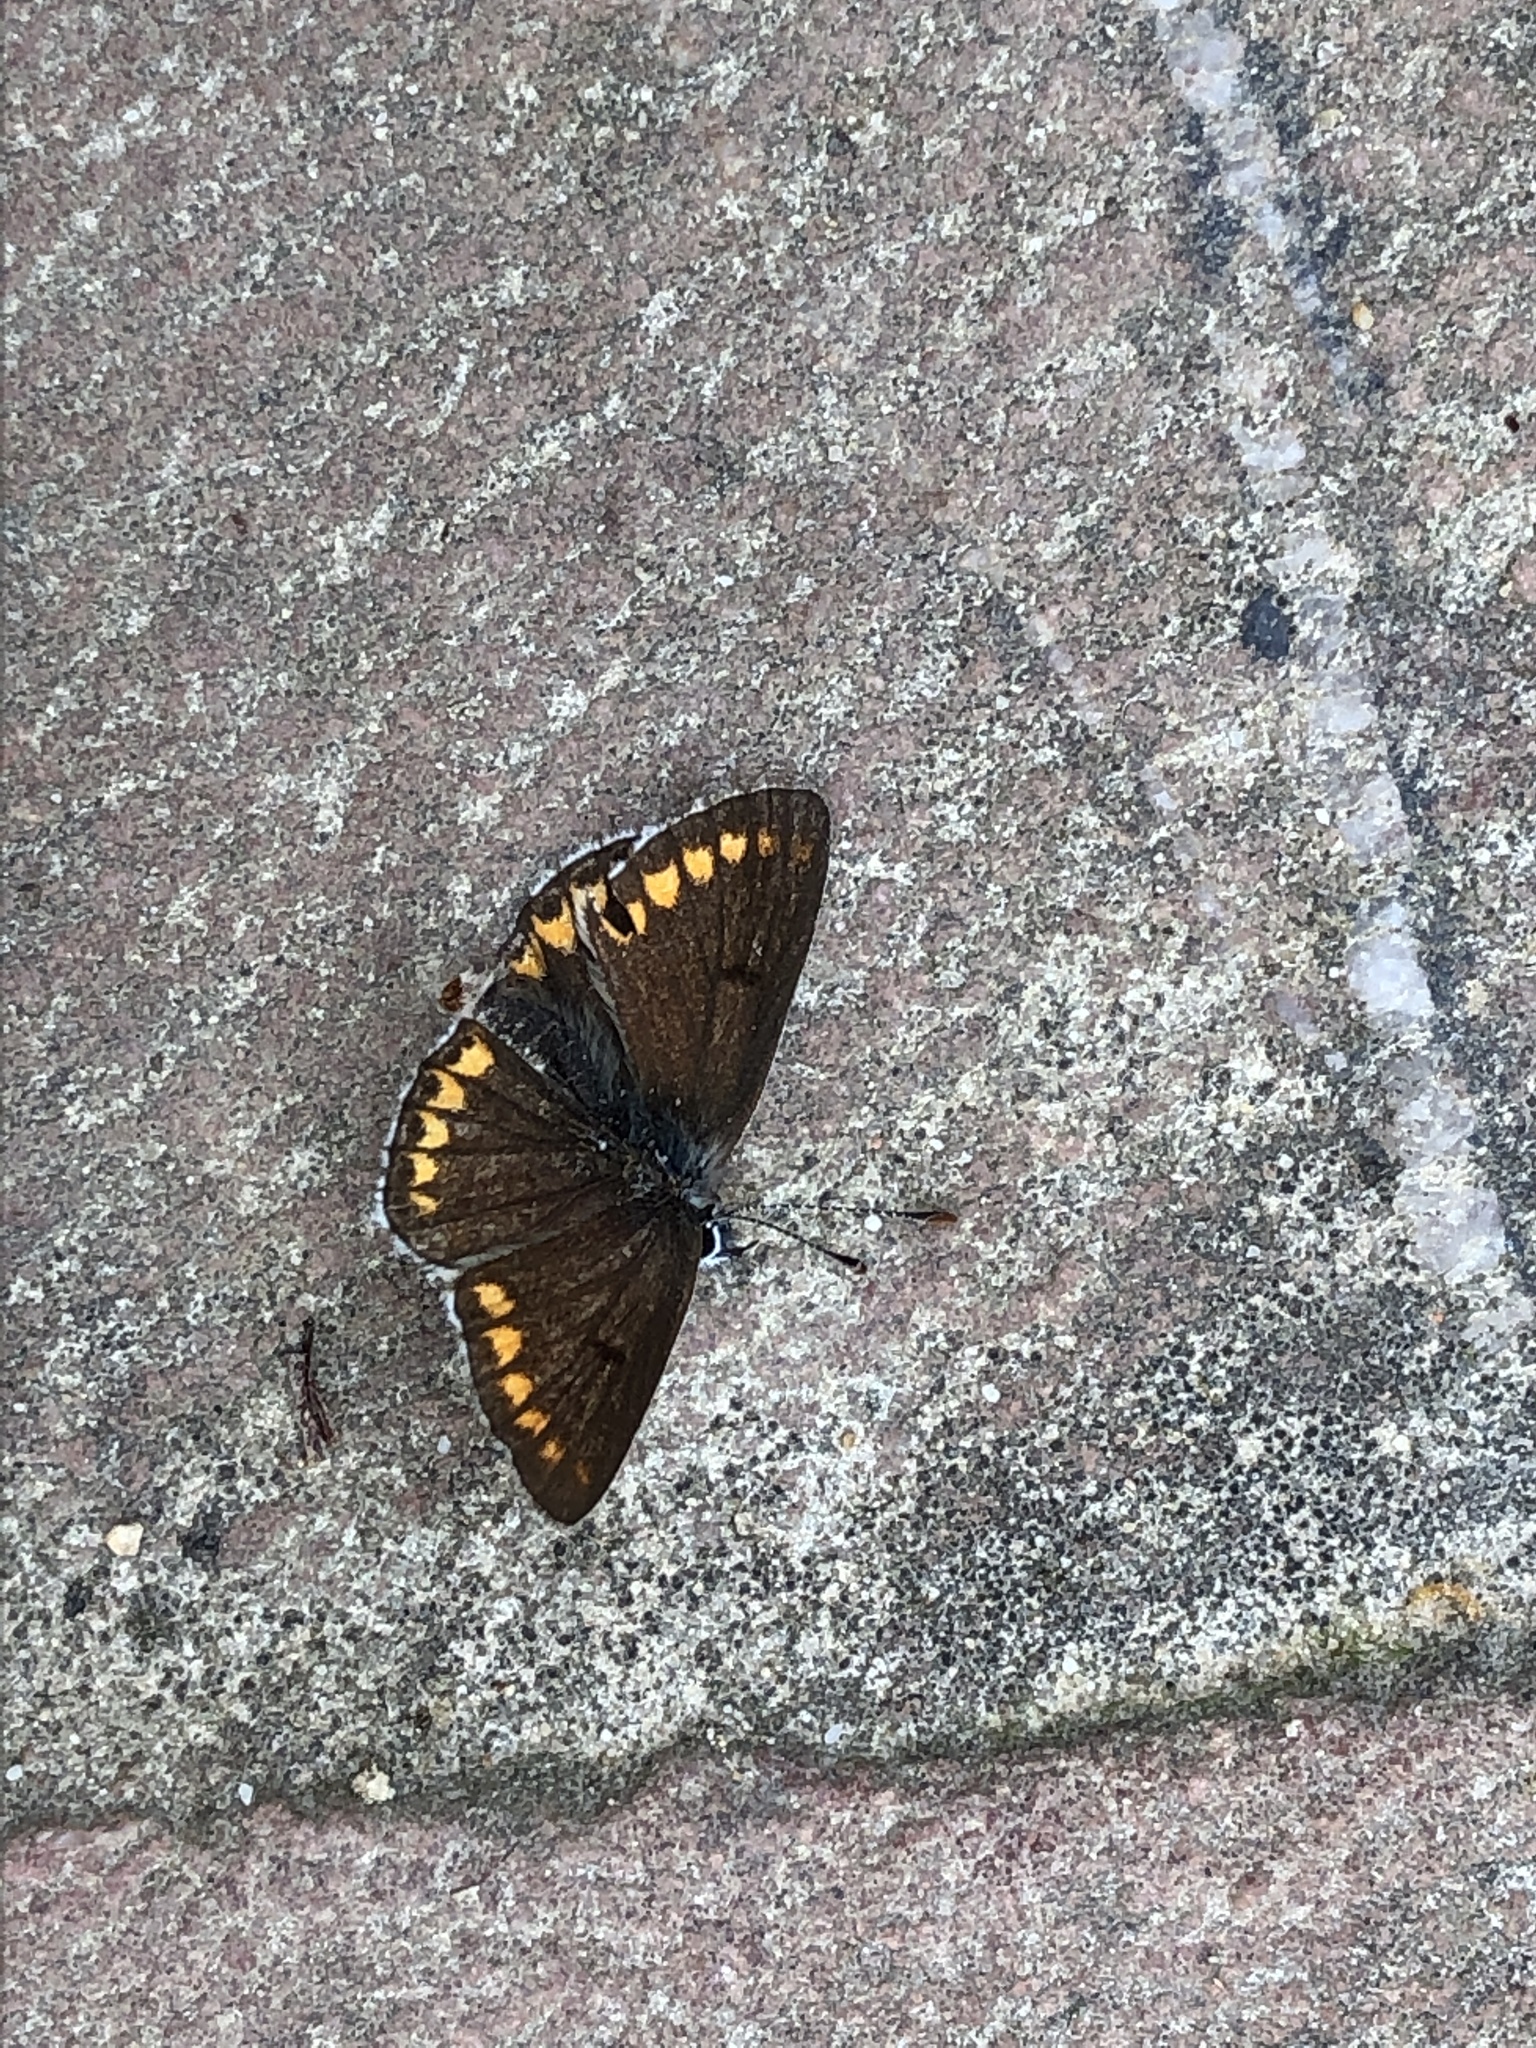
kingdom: Animalia
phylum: Arthropoda
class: Insecta
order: Lepidoptera
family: Lycaenidae
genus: Aricia
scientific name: Aricia agestis
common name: Brown argus
